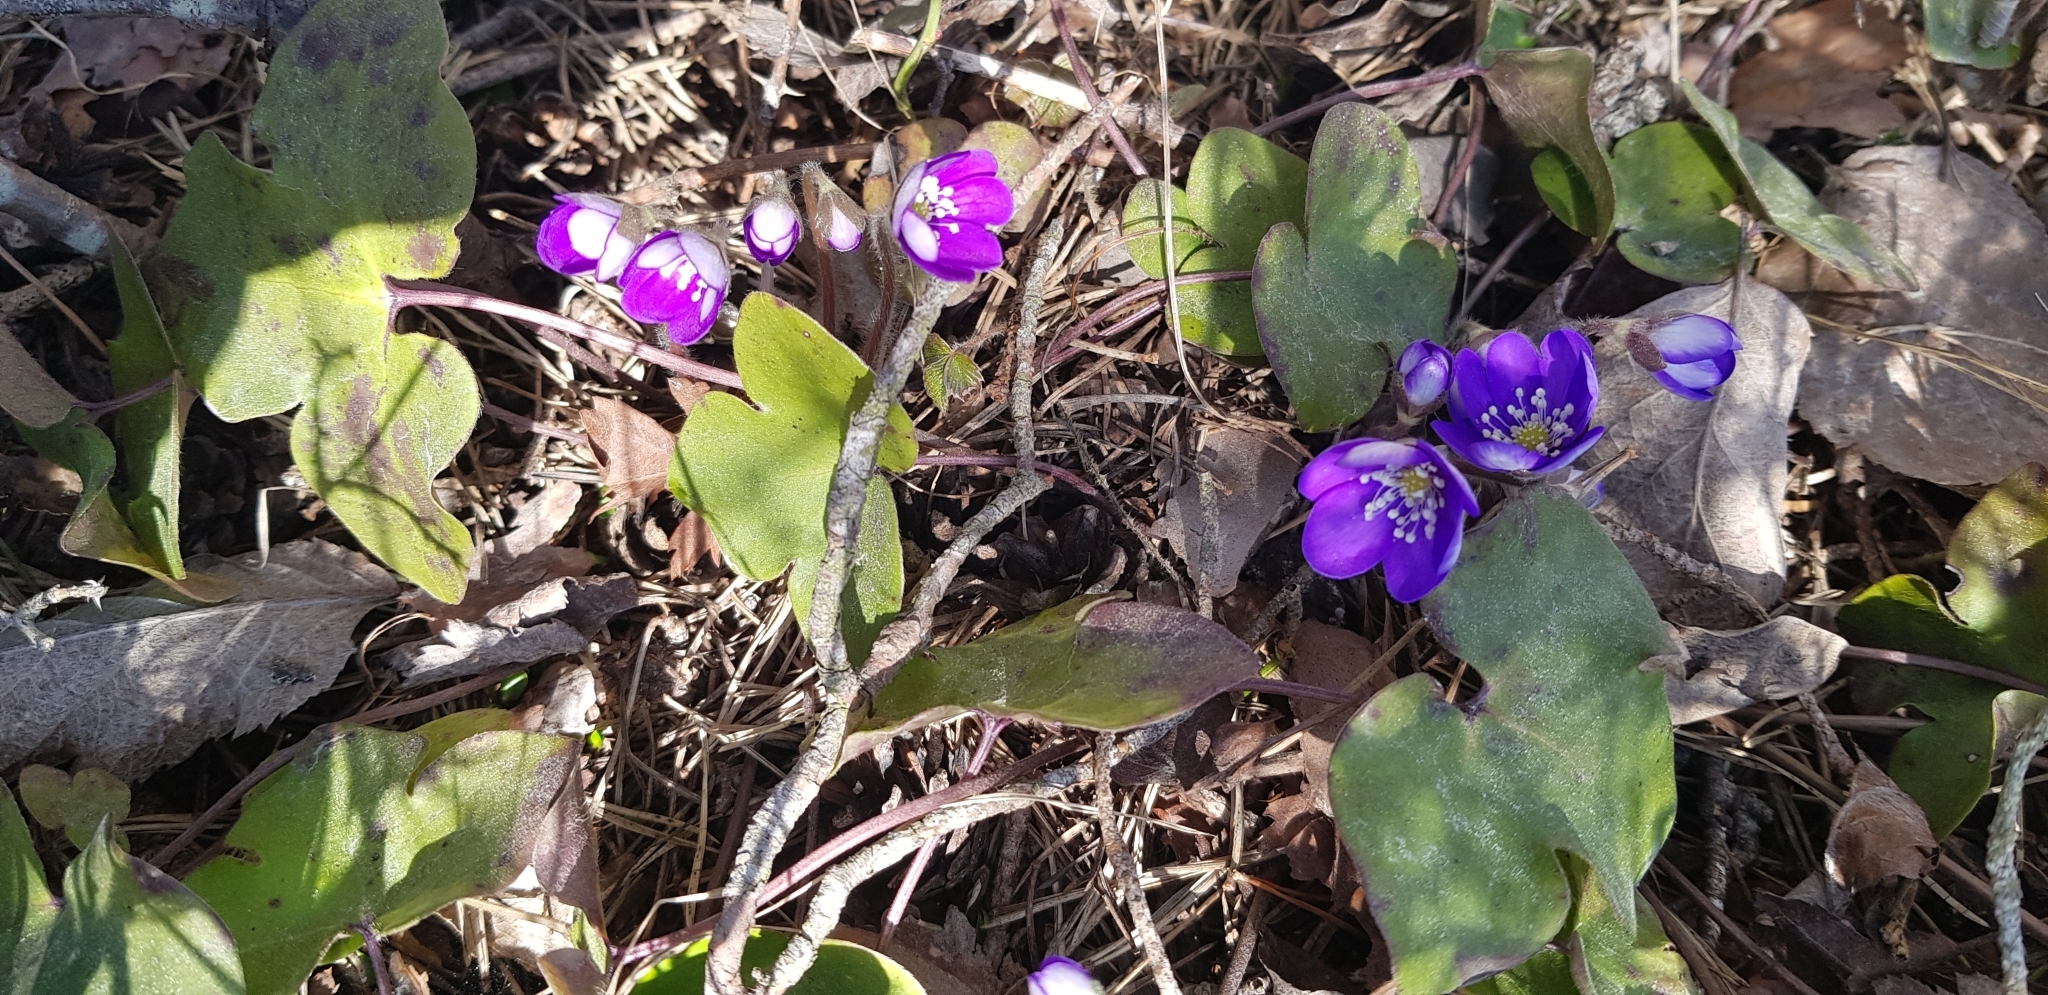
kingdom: Plantae
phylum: Tracheophyta
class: Magnoliopsida
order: Ranunculales
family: Ranunculaceae
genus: Hepatica
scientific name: Hepatica nobilis
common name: Liverleaf
